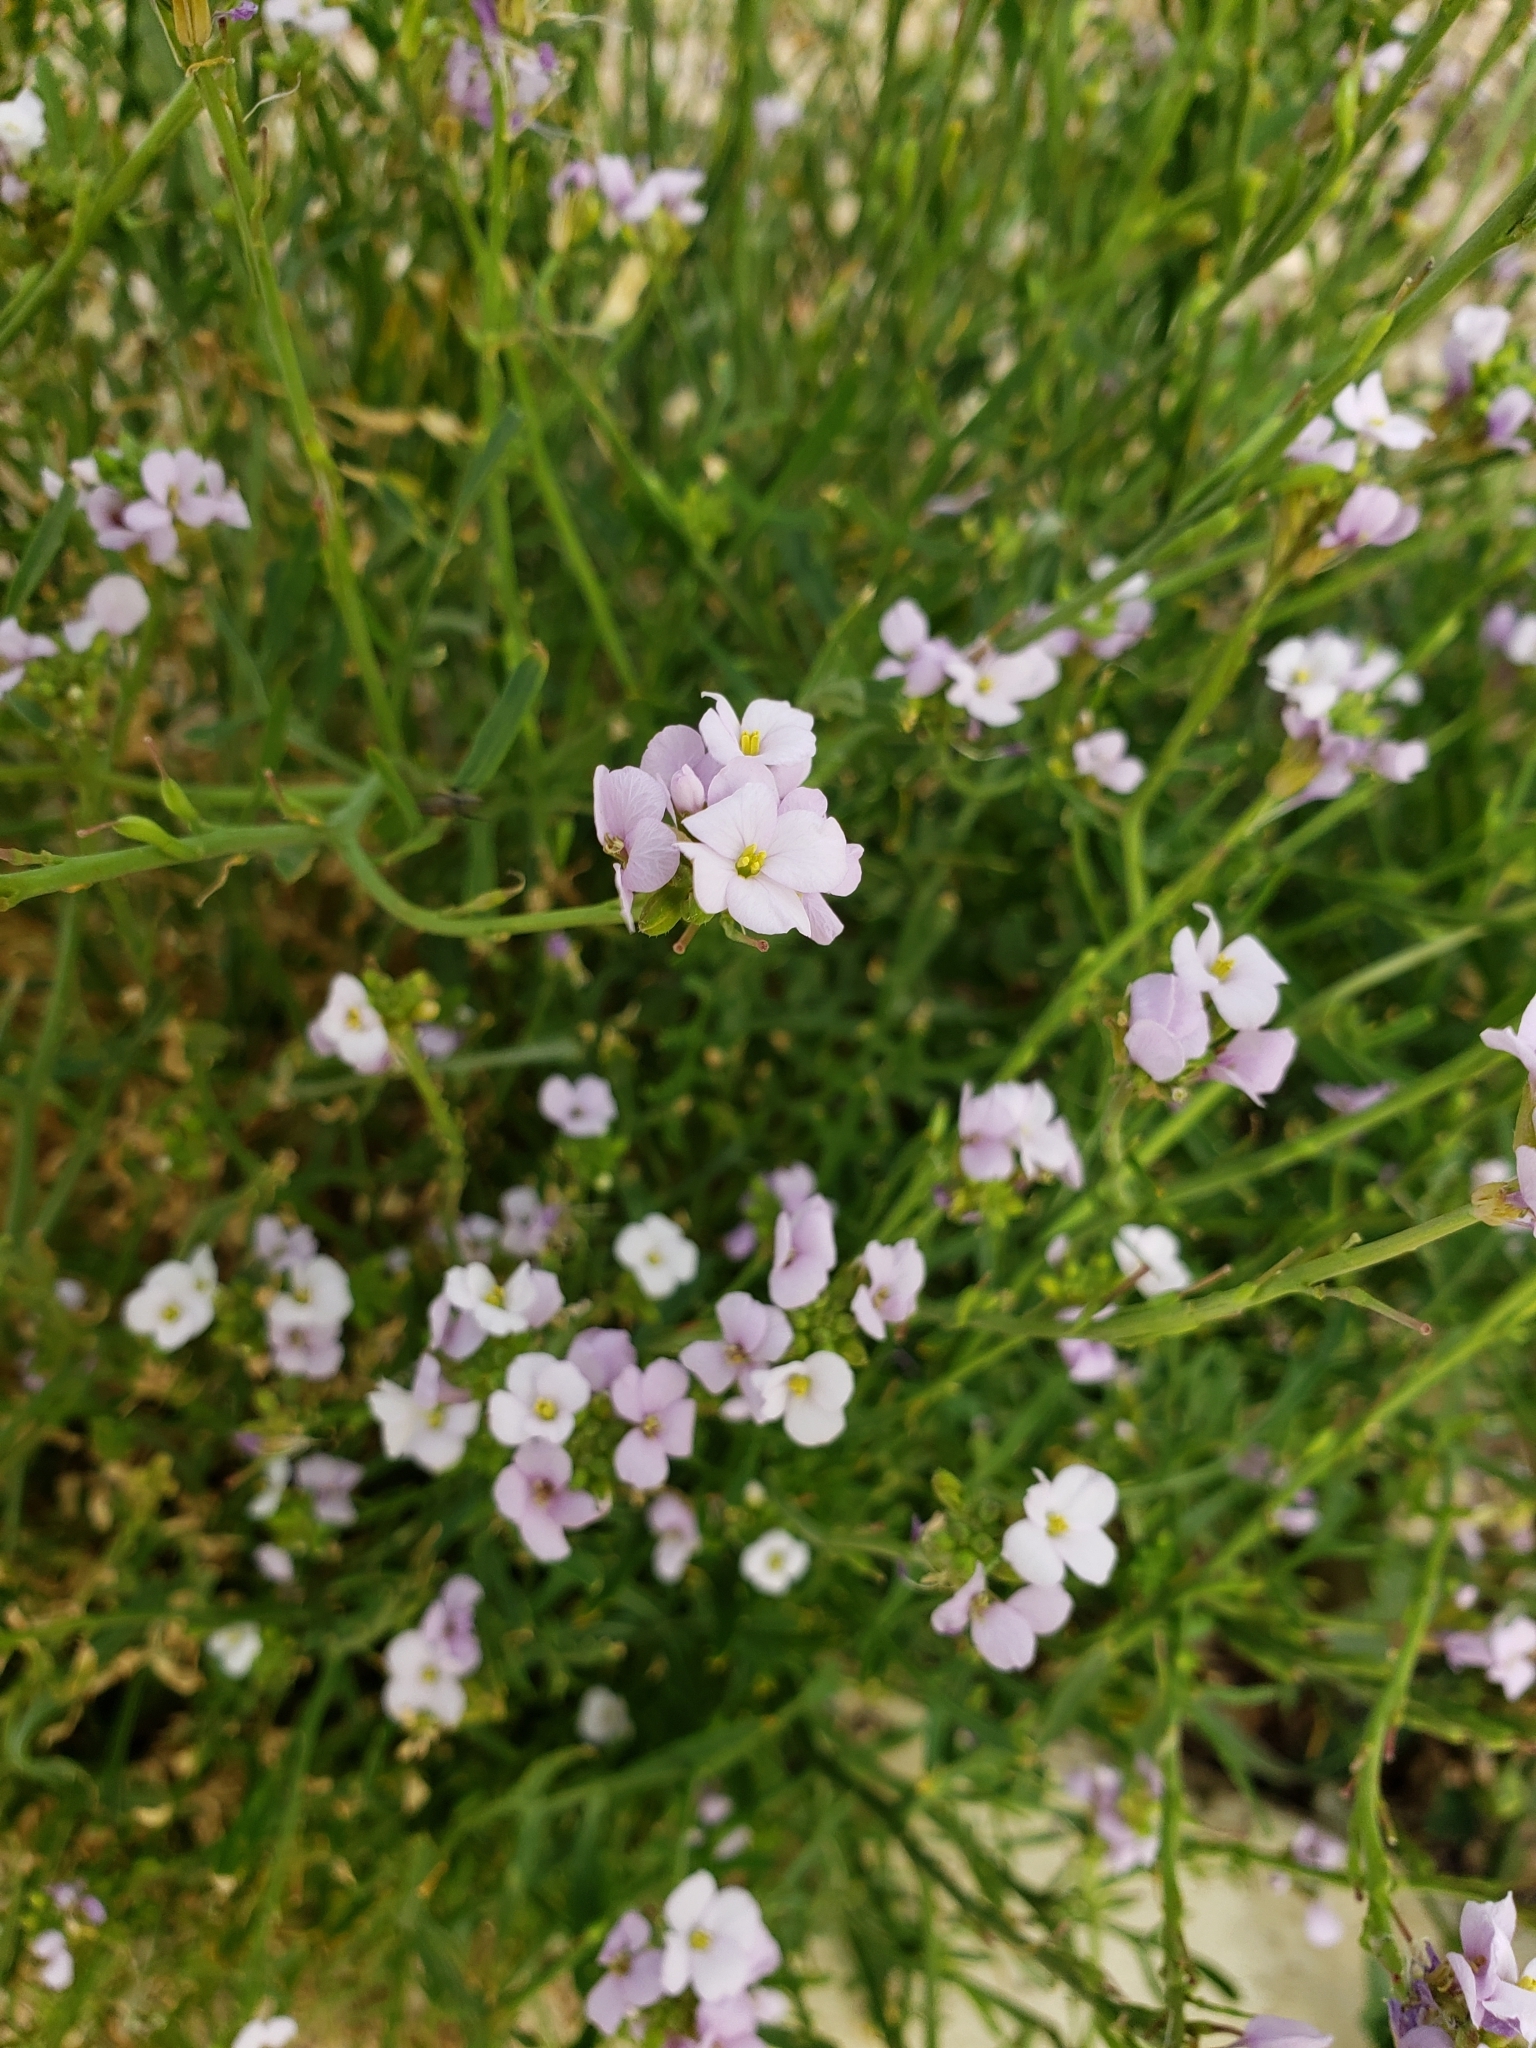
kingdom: Plantae
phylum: Tracheophyta
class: Magnoliopsida
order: Brassicales
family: Brassicaceae
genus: Cakile
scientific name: Cakile maritima
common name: Sea rocket
